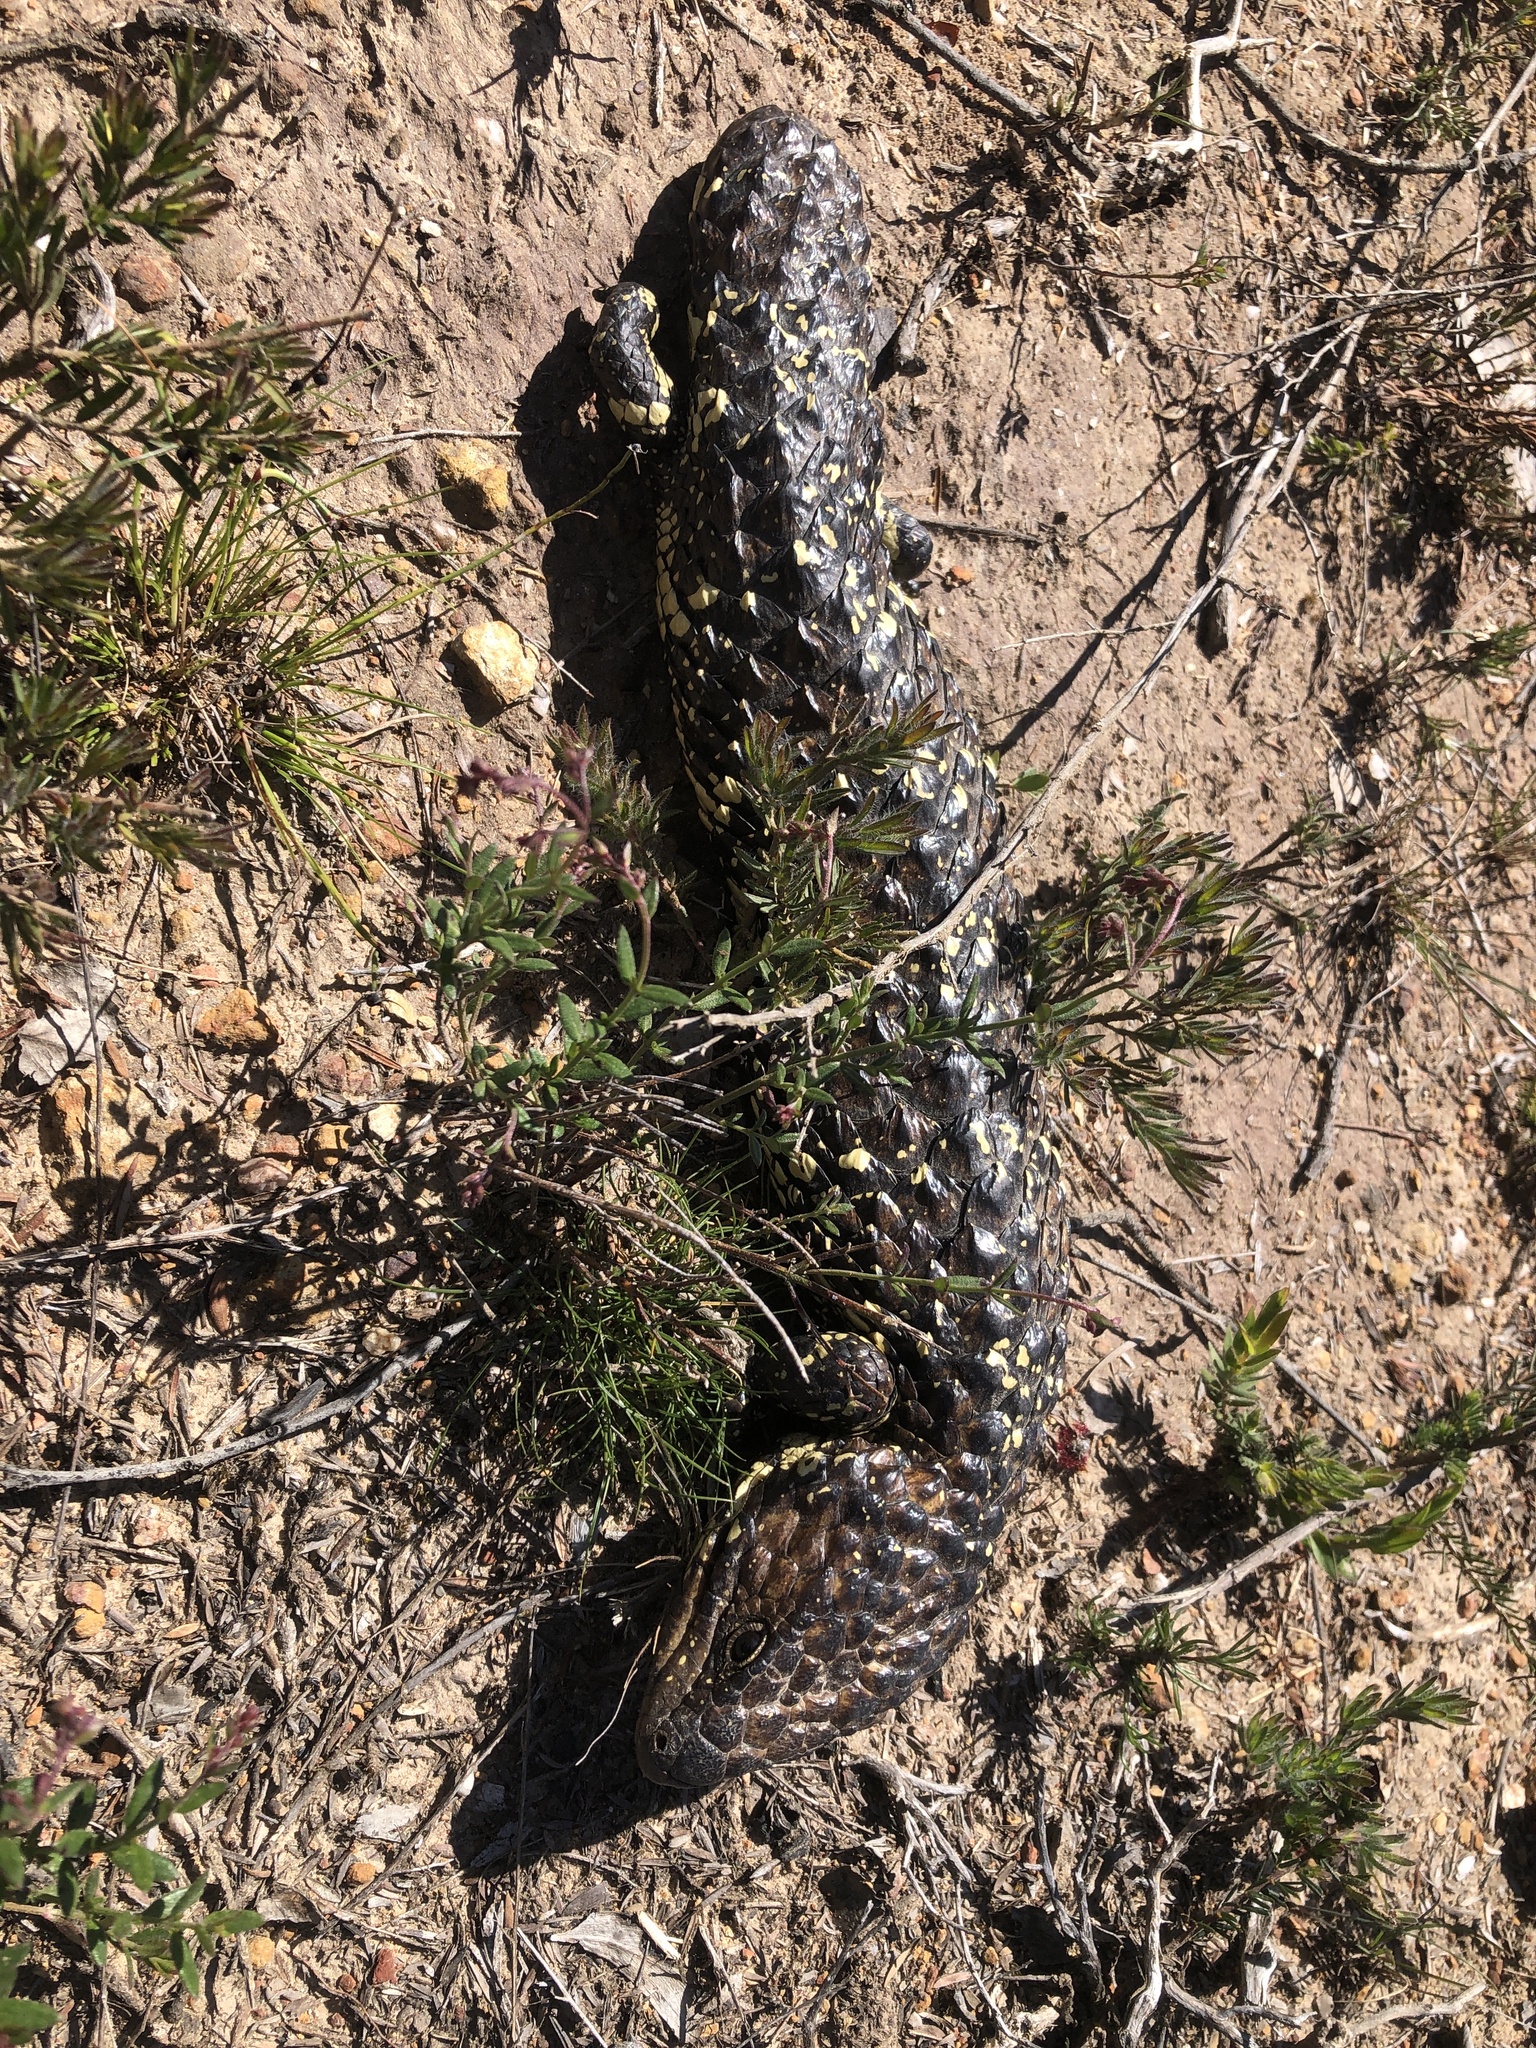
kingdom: Animalia
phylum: Chordata
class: Squamata
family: Scincidae
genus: Tiliqua
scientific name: Tiliqua rugosa
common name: Pinecone lizard
